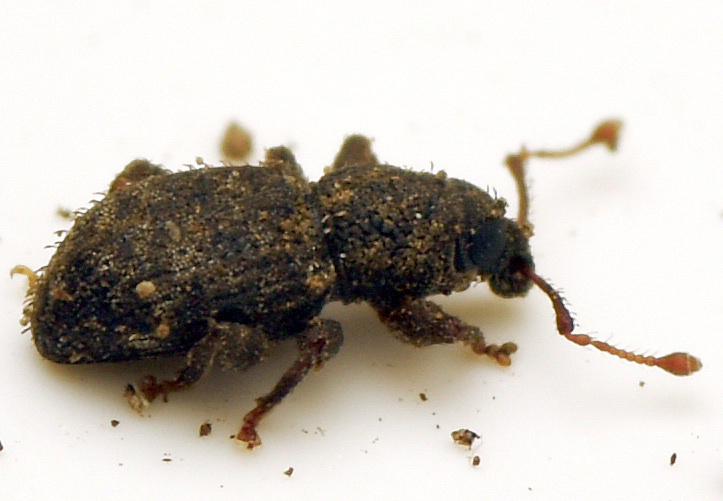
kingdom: Animalia
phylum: Arthropoda
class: Insecta
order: Coleoptera
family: Curculionidae
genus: Mandalotus
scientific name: Mandalotus macrops
